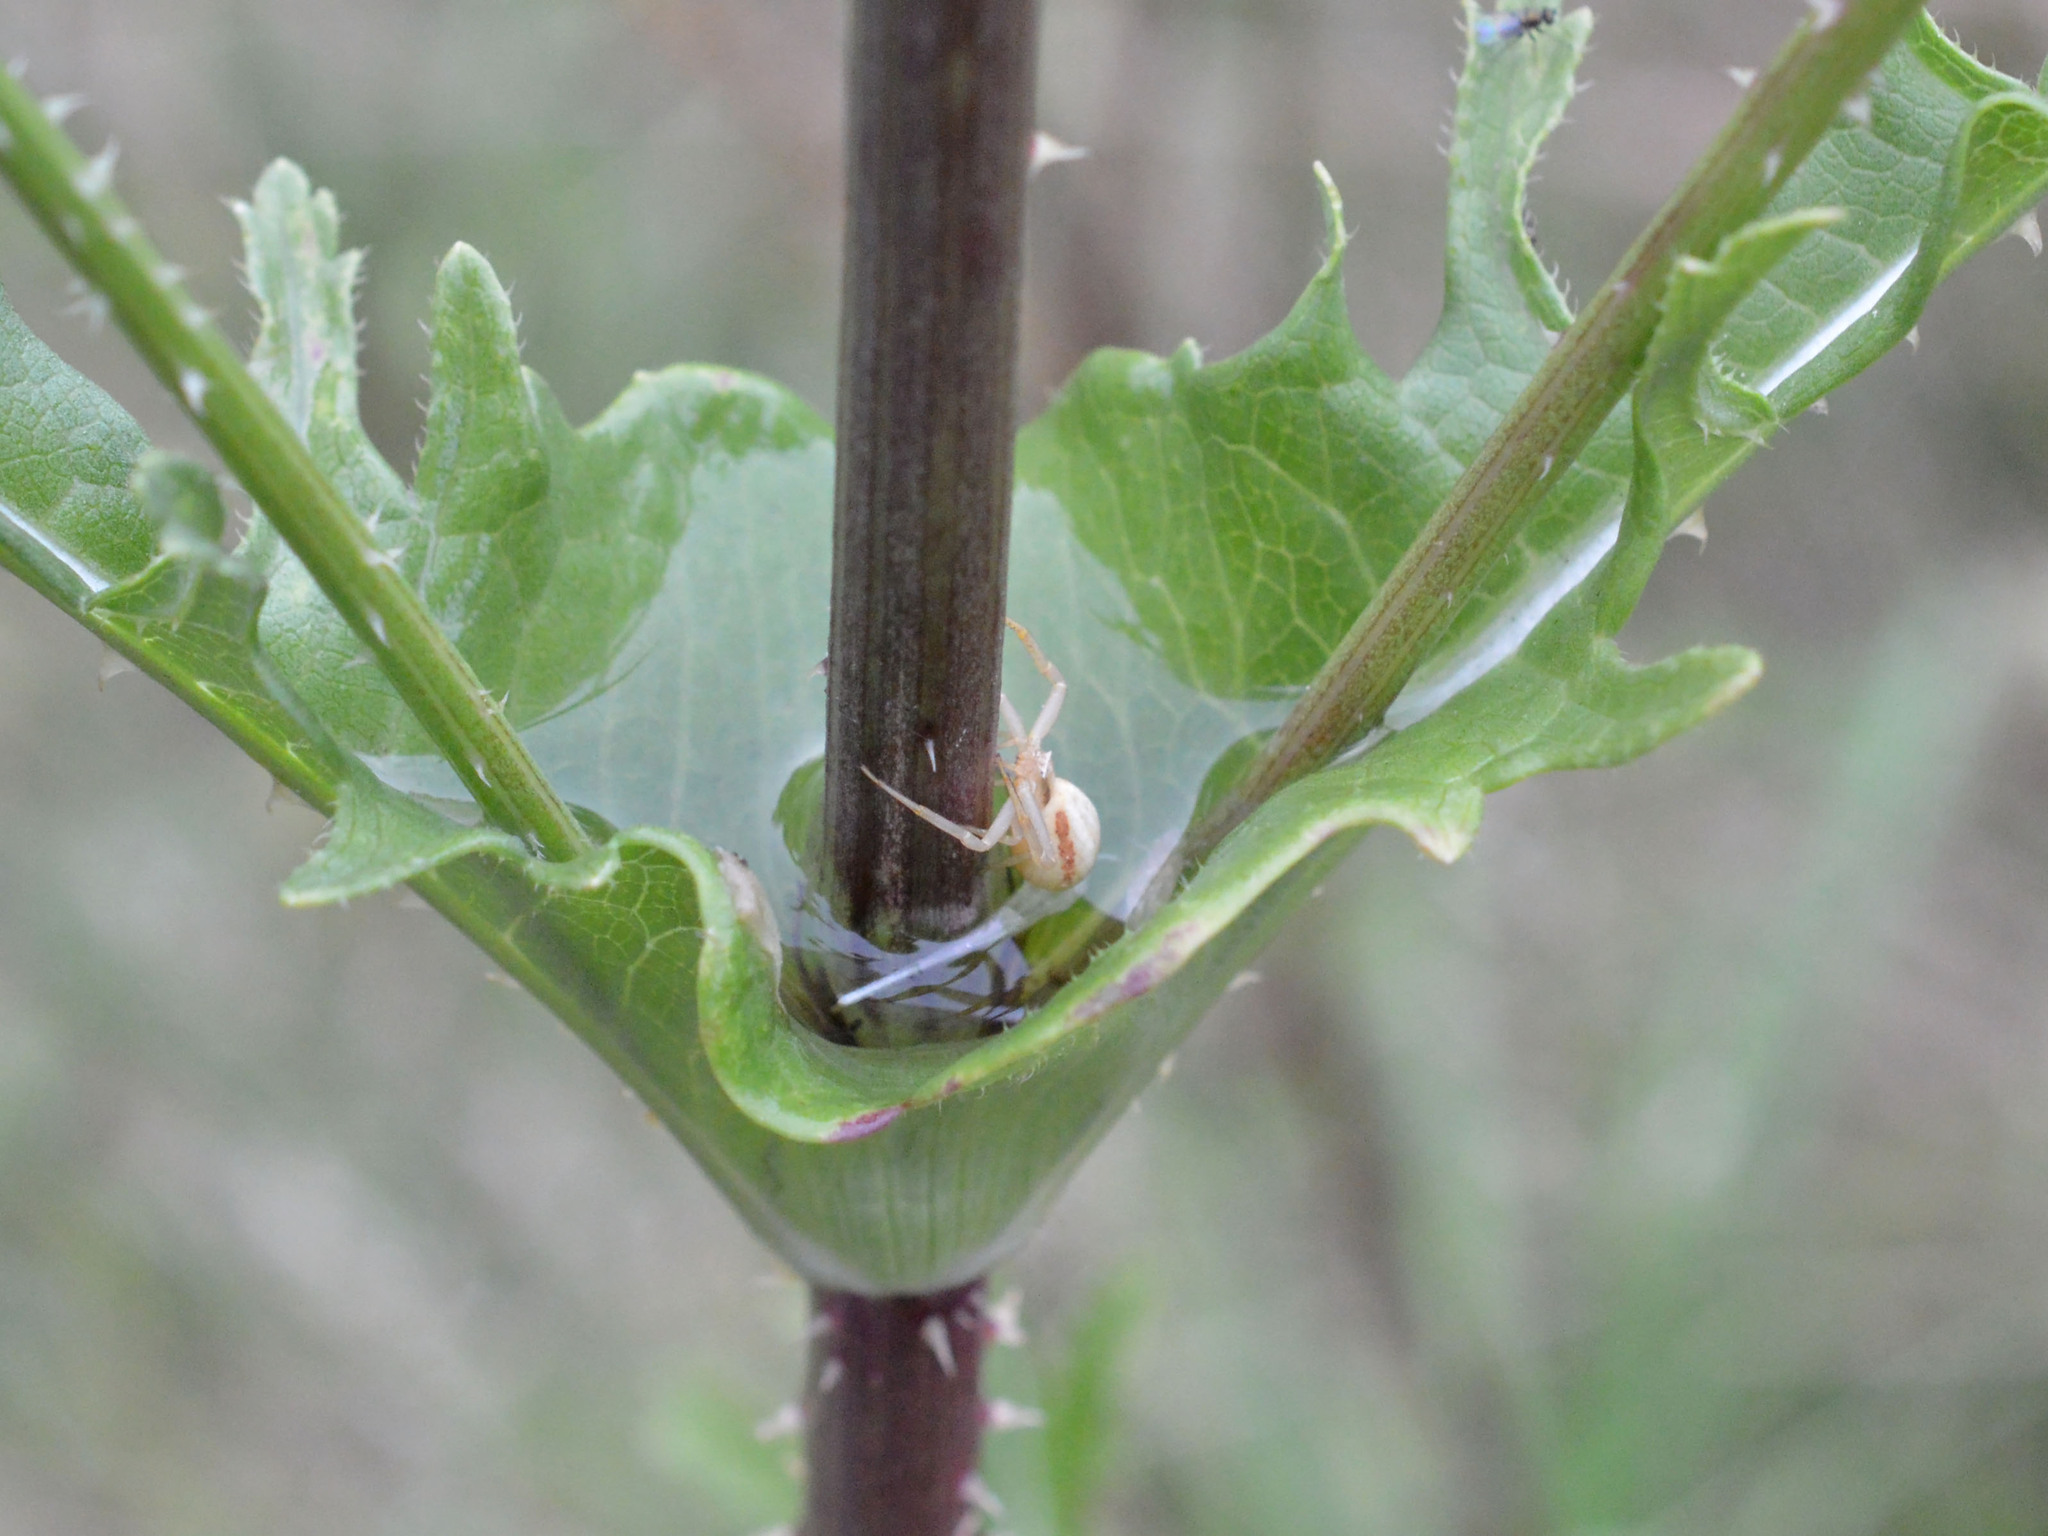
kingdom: Animalia
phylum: Arthropoda
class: Arachnida
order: Araneae
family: Thomisidae
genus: Runcinia
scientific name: Runcinia grammica
